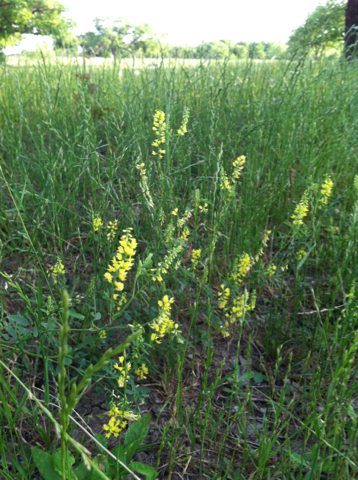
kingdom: Plantae
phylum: Tracheophyta
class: Magnoliopsida
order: Fabales
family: Fabaceae
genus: Melilotus
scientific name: Melilotus officinalis
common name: Sweetclover
